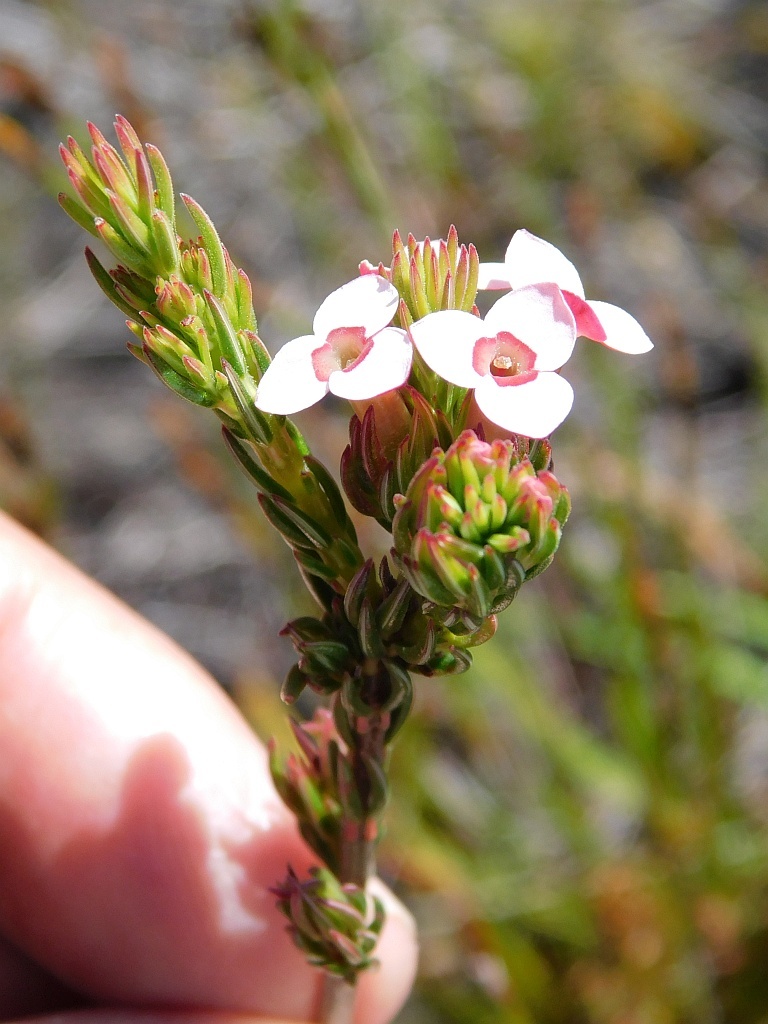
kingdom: Plantae
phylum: Tracheophyta
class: Magnoliopsida
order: Ericales
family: Ericaceae
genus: Erica
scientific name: Erica fastigiata
